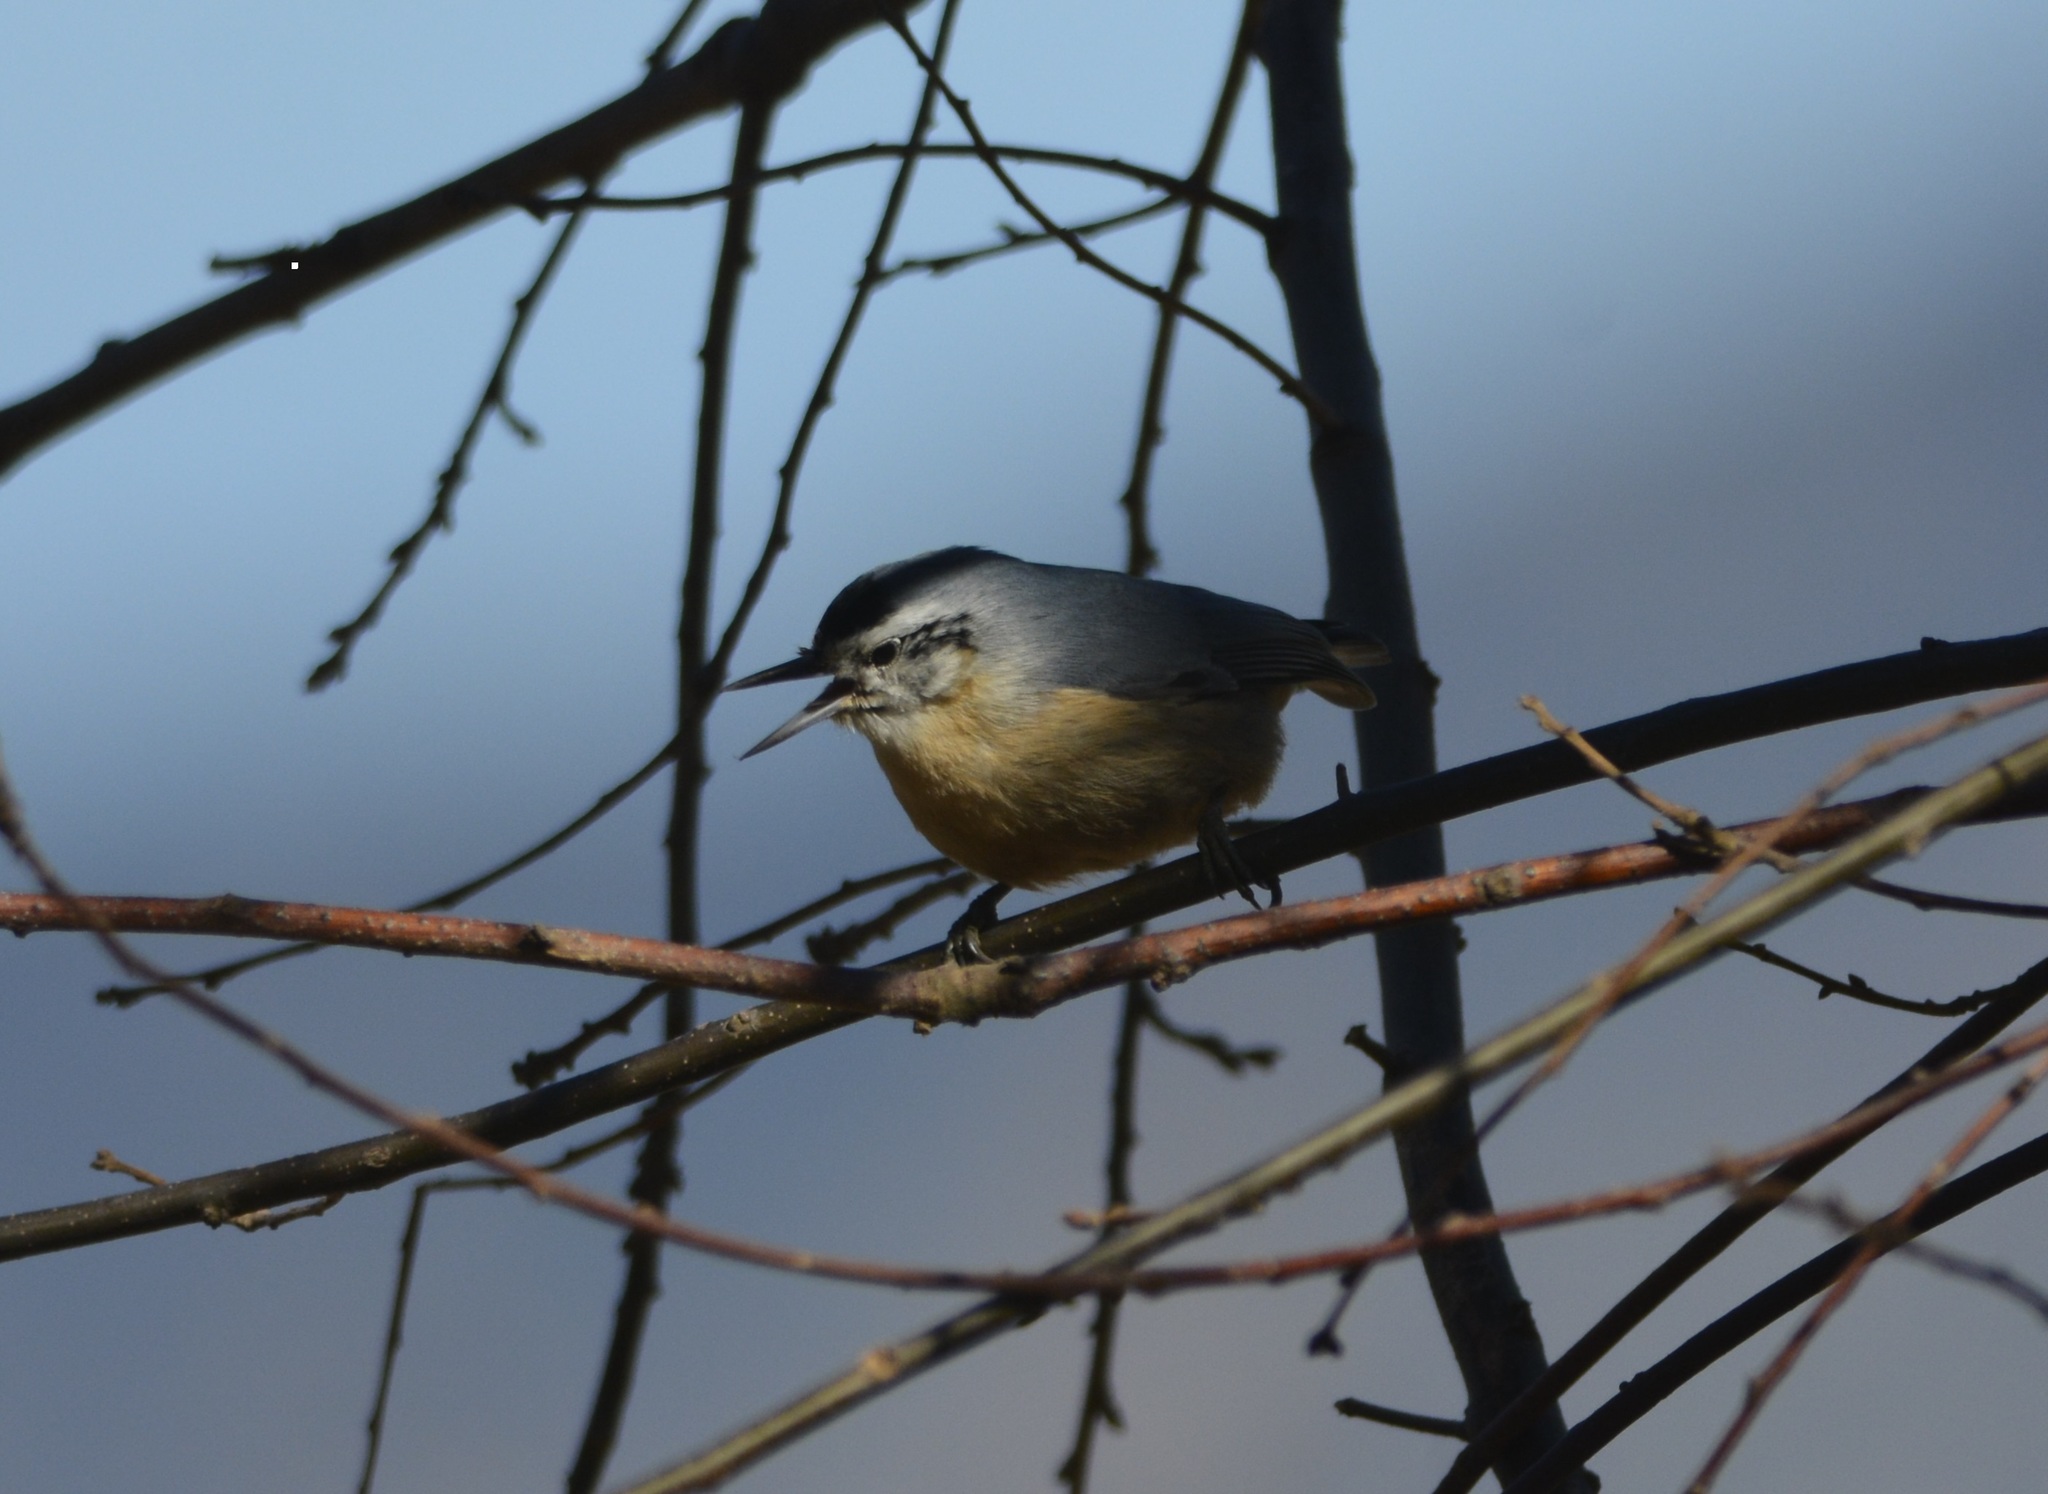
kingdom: Animalia
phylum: Chordata
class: Aves
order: Passeriformes
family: Sittidae
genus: Sitta
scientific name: Sitta ledanti
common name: Algerian nuthatch
